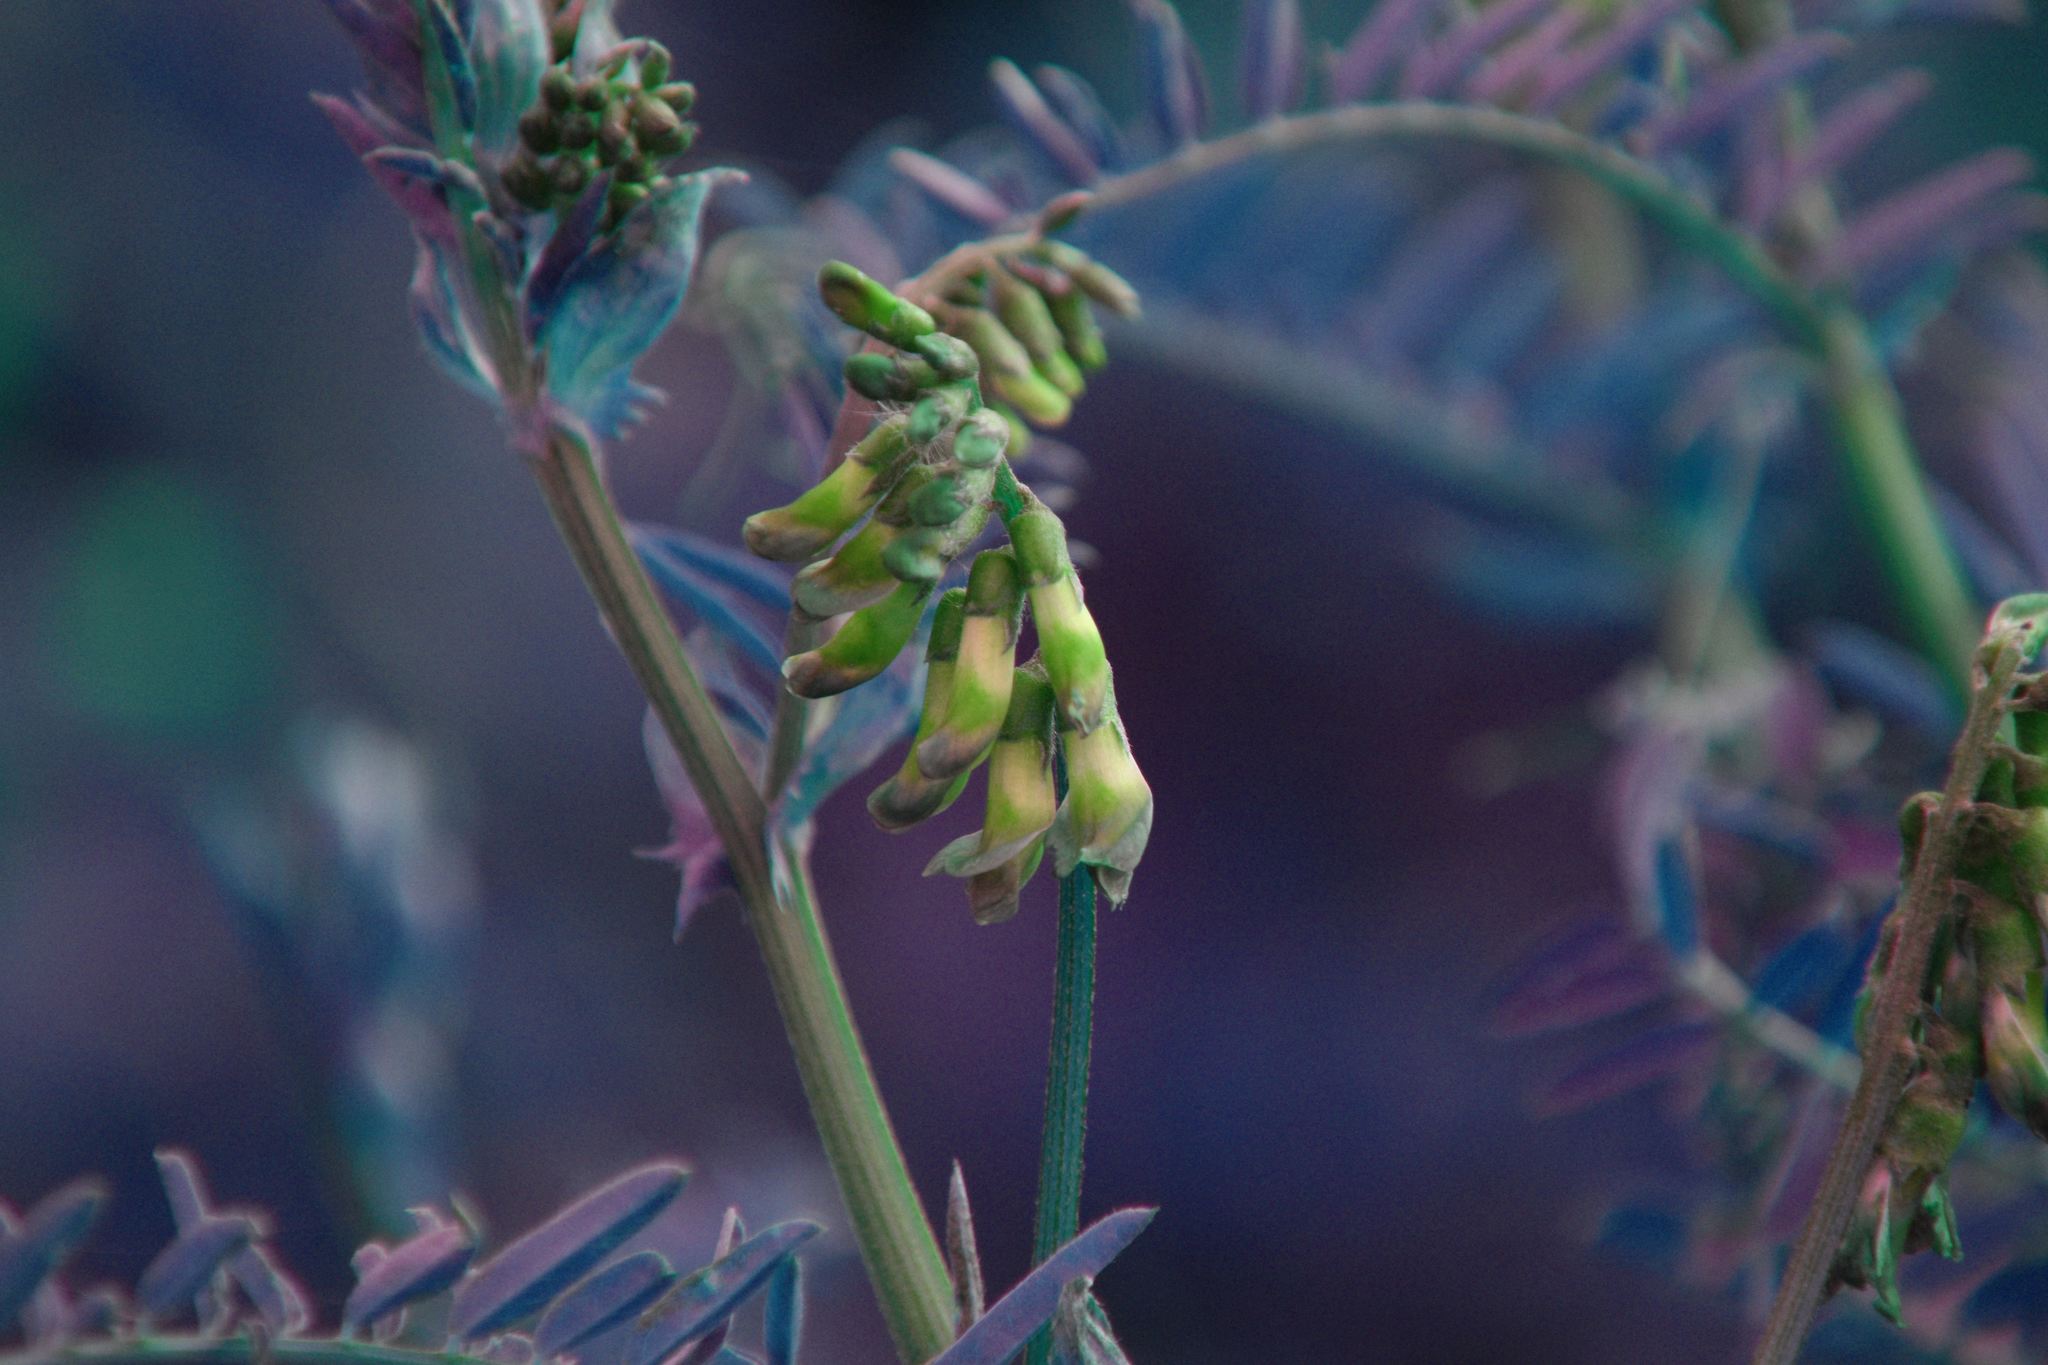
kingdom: Plantae
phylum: Tracheophyta
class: Magnoliopsida
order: Fabales
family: Fabaceae
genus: Vicia
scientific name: Vicia
